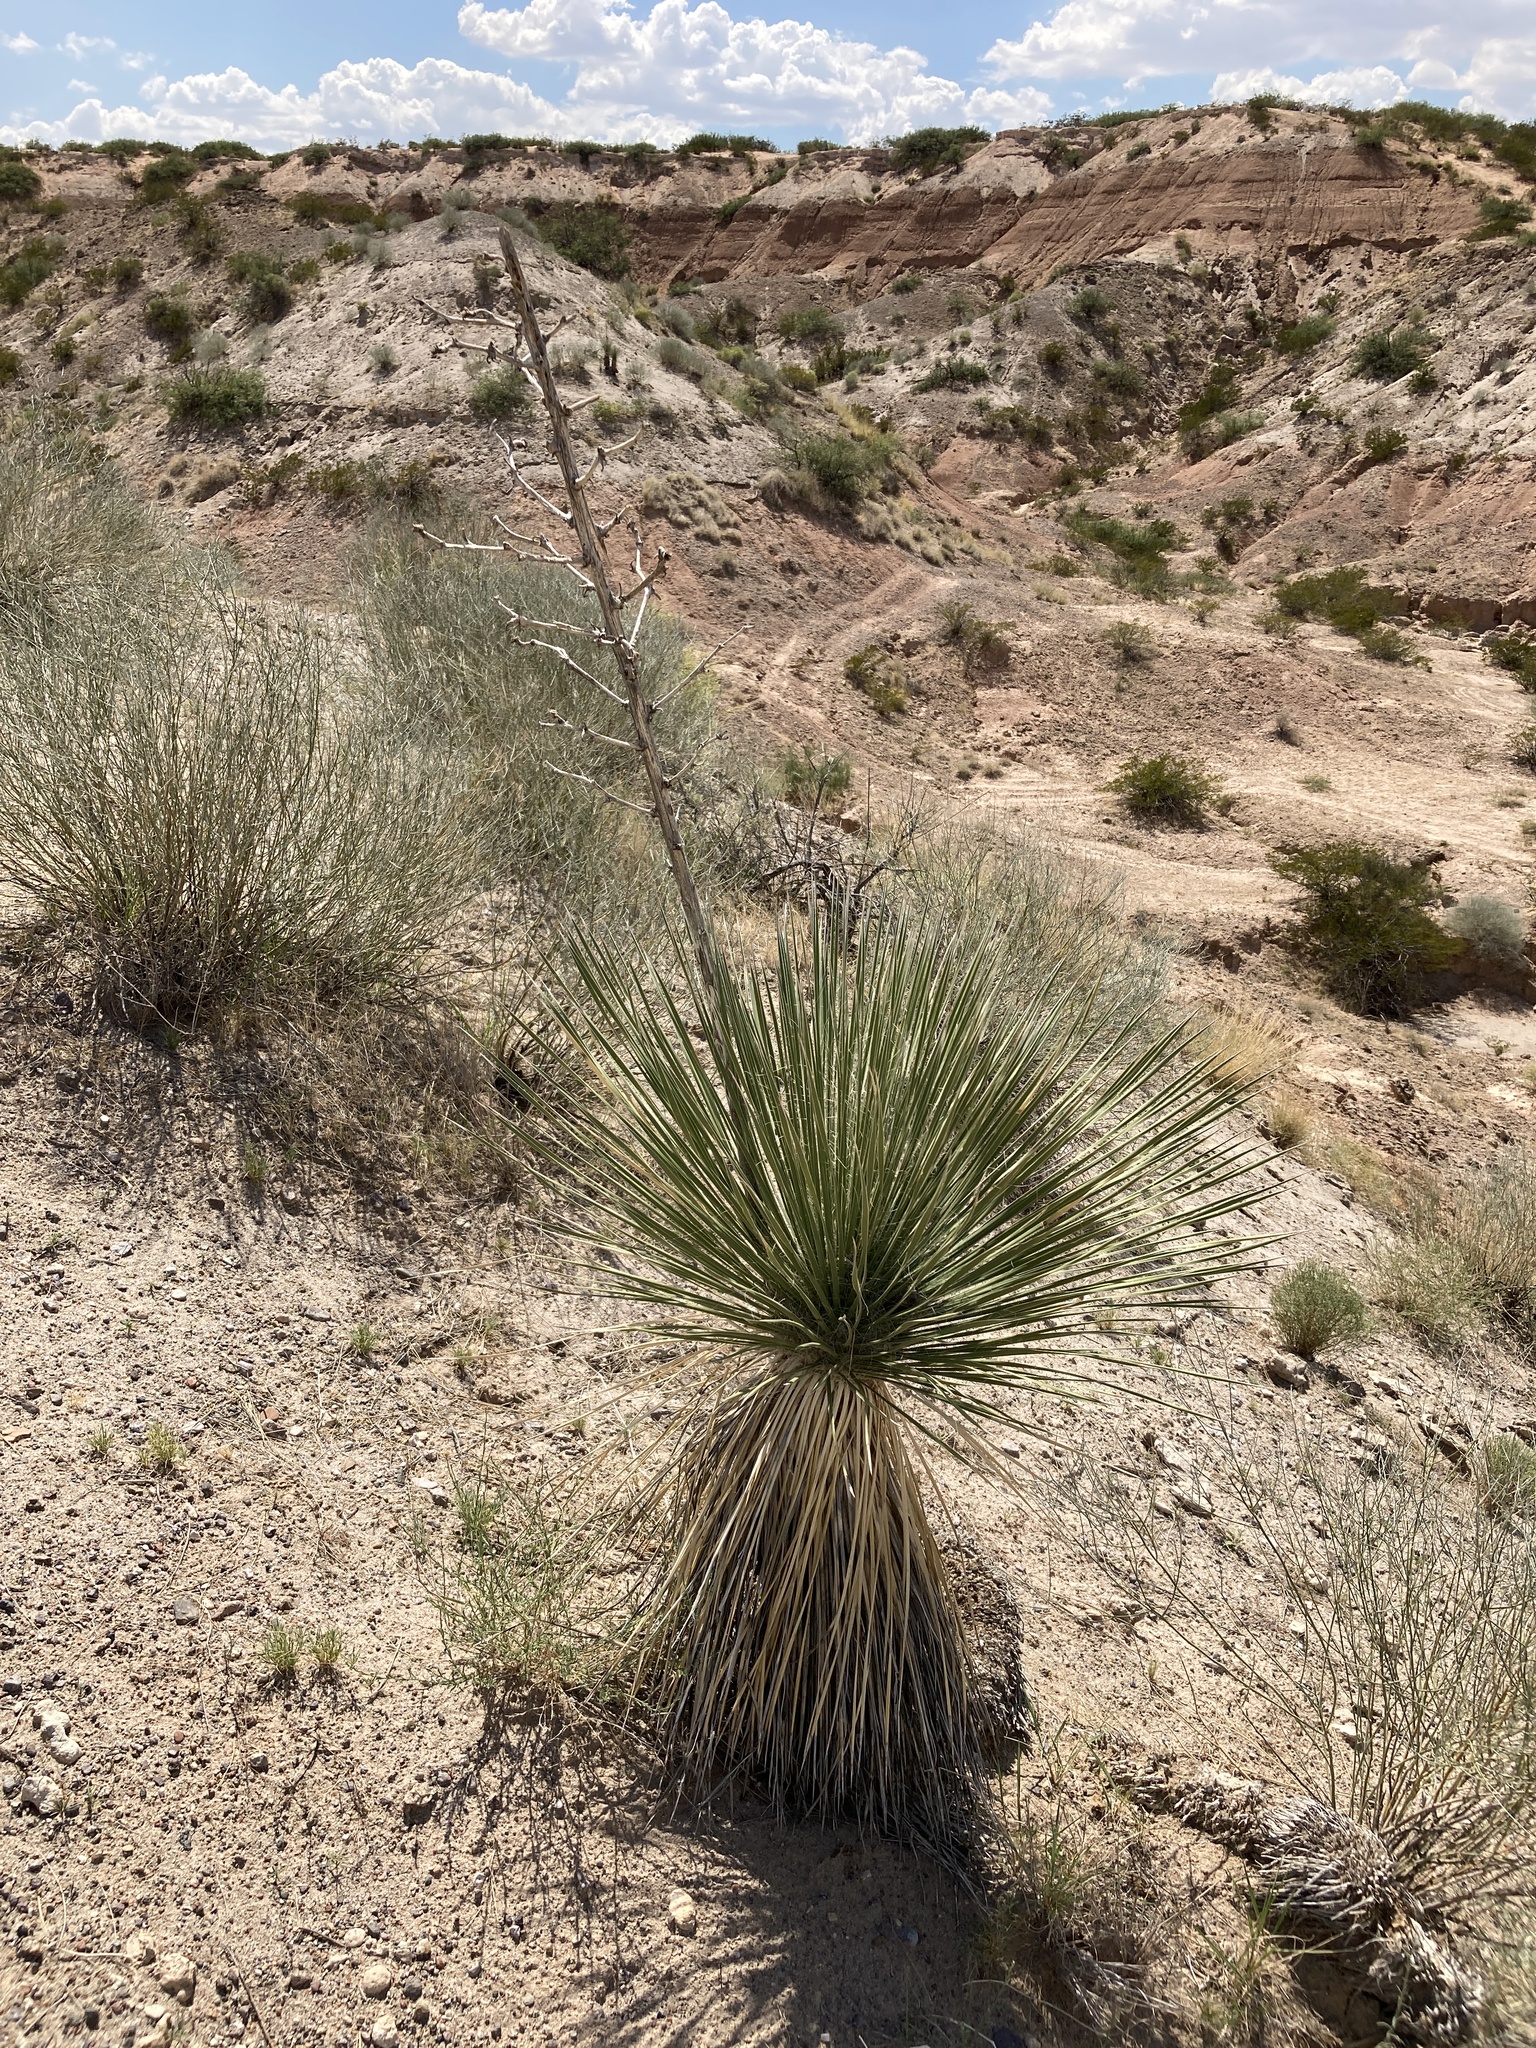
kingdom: Plantae
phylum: Tracheophyta
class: Liliopsida
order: Asparagales
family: Asparagaceae
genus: Yucca
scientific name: Yucca elata
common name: Palmella
